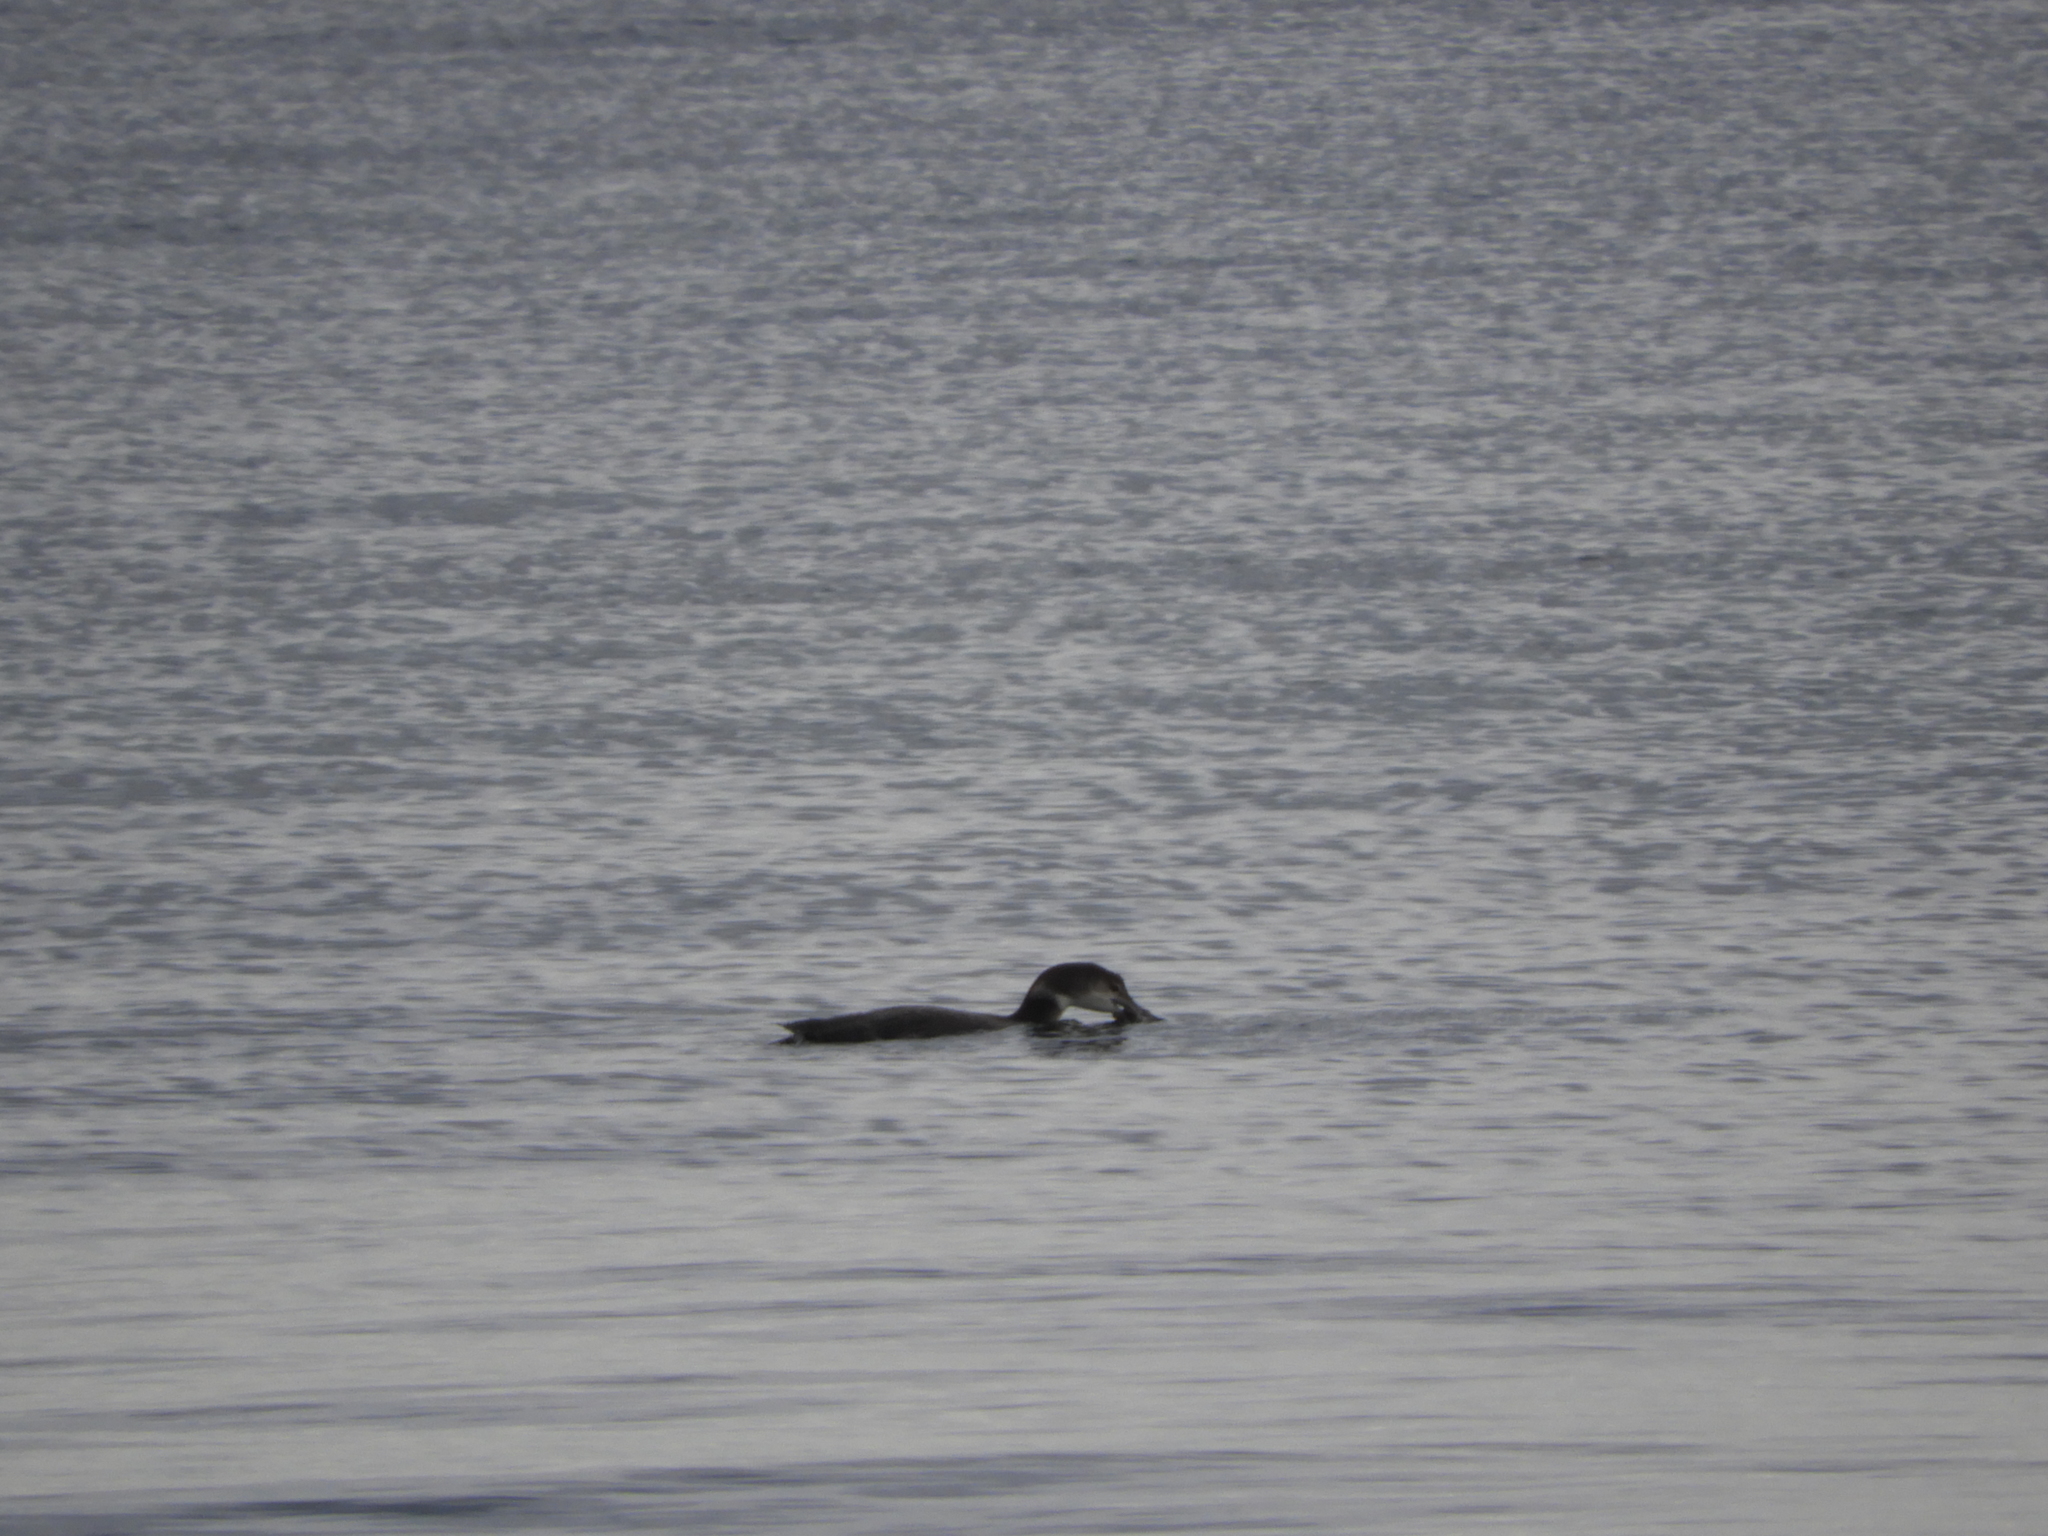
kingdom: Animalia
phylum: Chordata
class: Aves
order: Gaviiformes
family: Gaviidae
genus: Gavia
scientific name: Gavia immer
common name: Common loon
